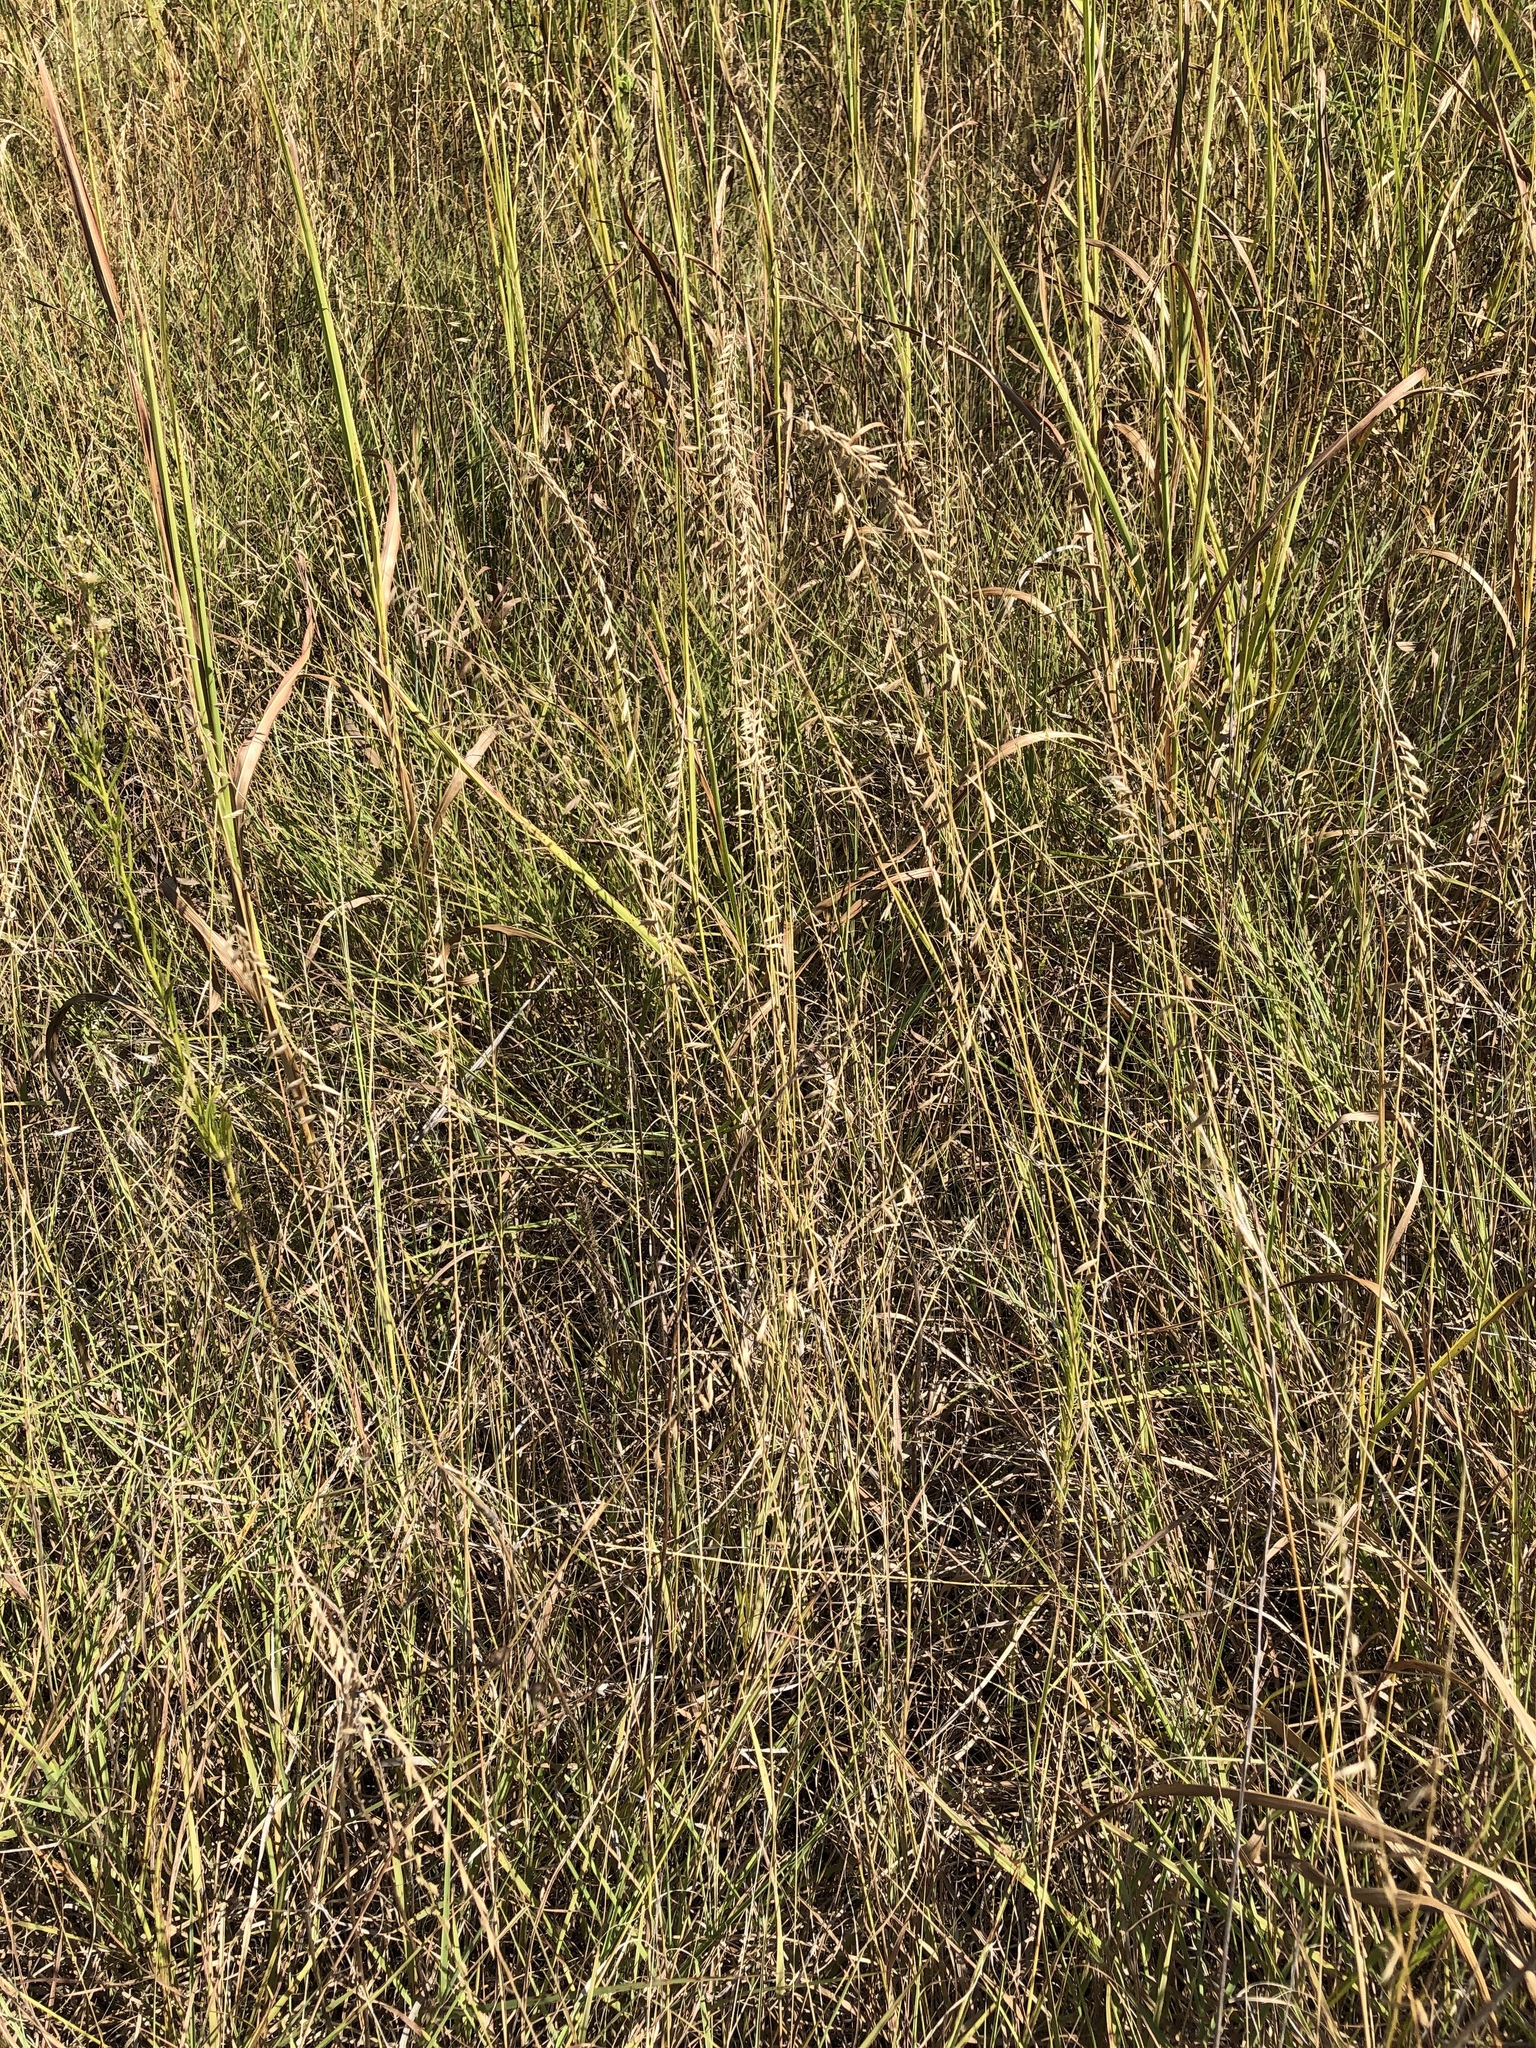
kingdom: Plantae
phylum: Tracheophyta
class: Liliopsida
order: Poales
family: Poaceae
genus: Bouteloua
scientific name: Bouteloua curtipendula
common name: Side-oats grama
